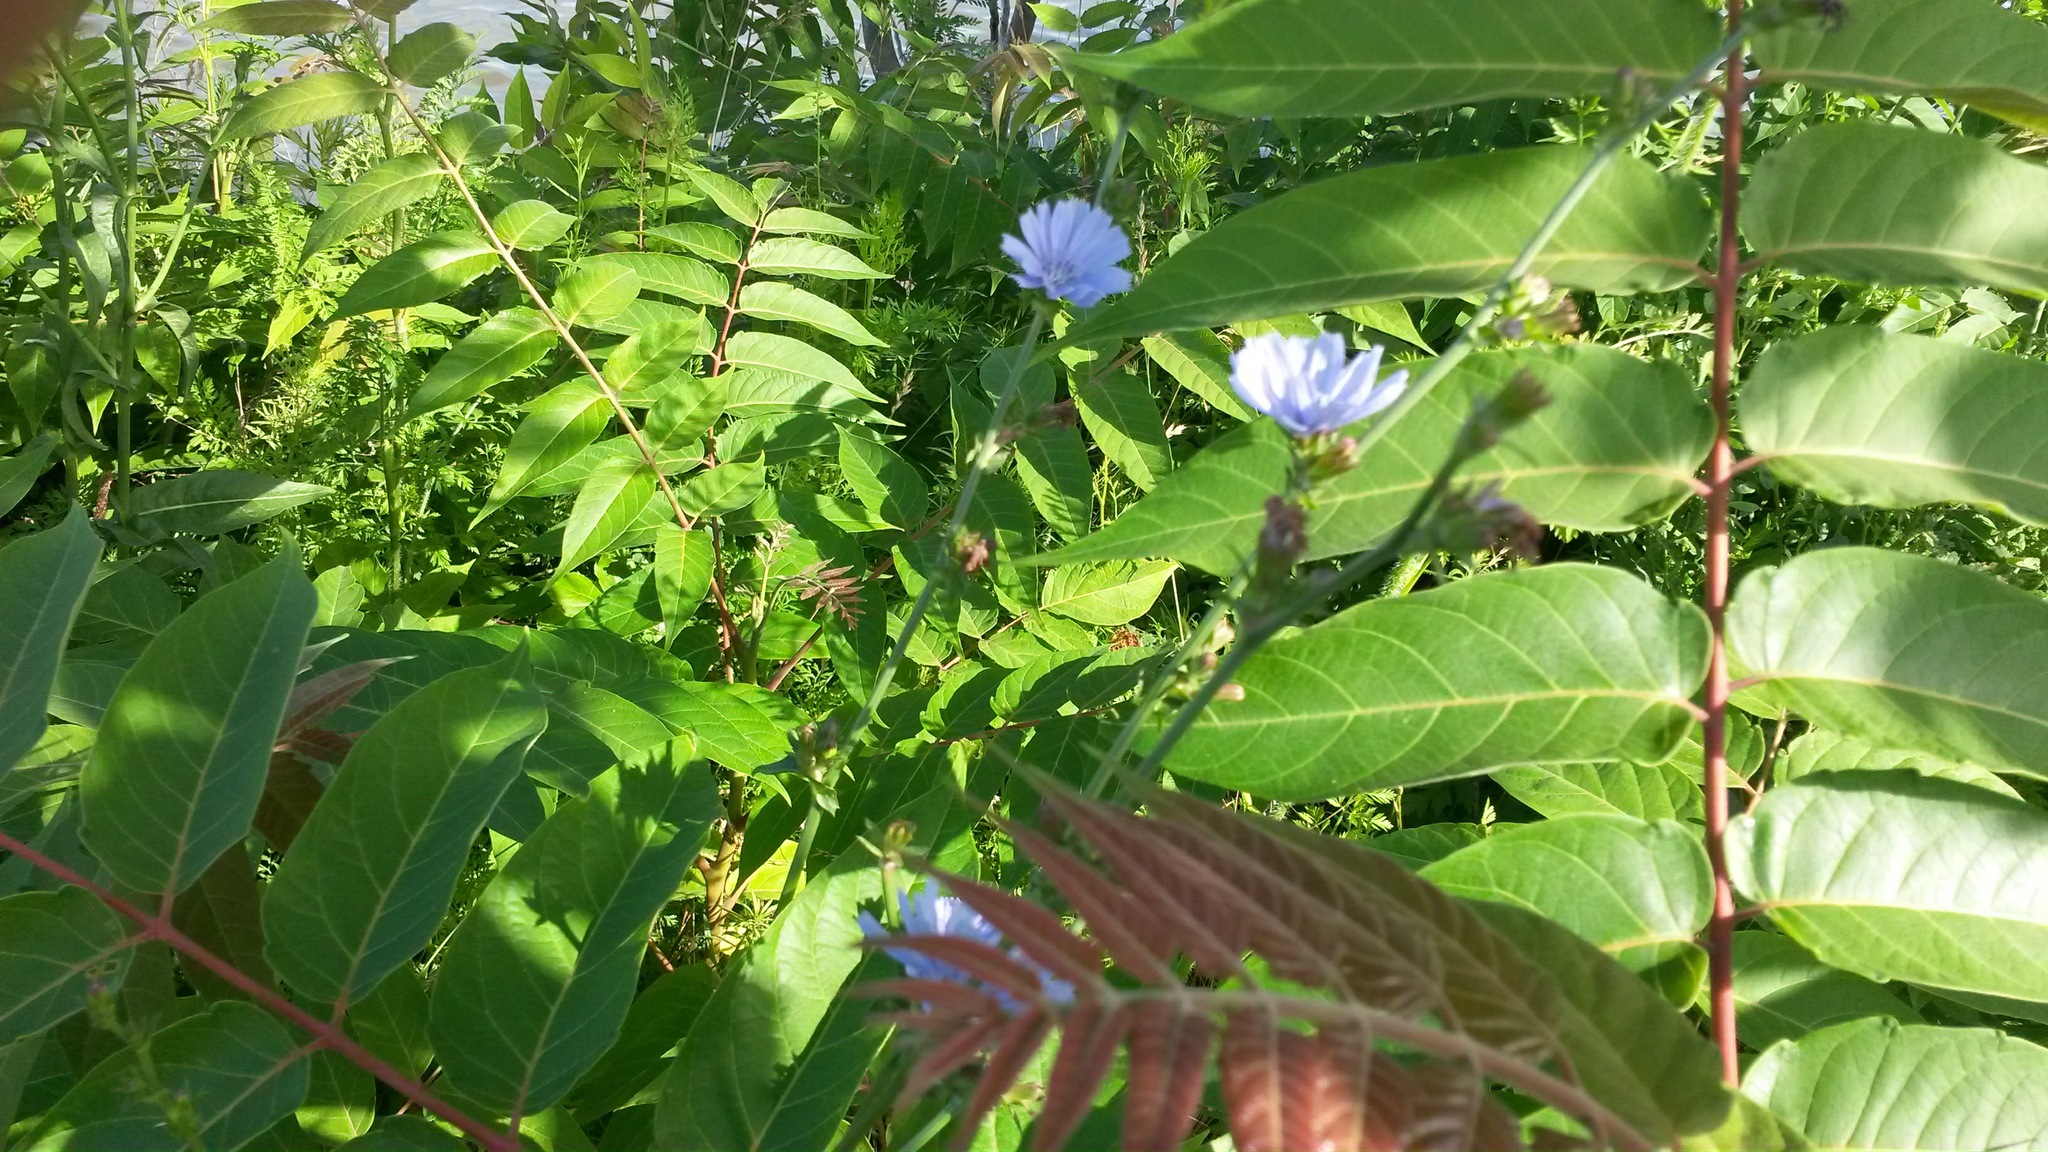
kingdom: Plantae
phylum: Tracheophyta
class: Magnoliopsida
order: Asterales
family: Asteraceae
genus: Cichorium
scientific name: Cichorium intybus
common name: Chicory
